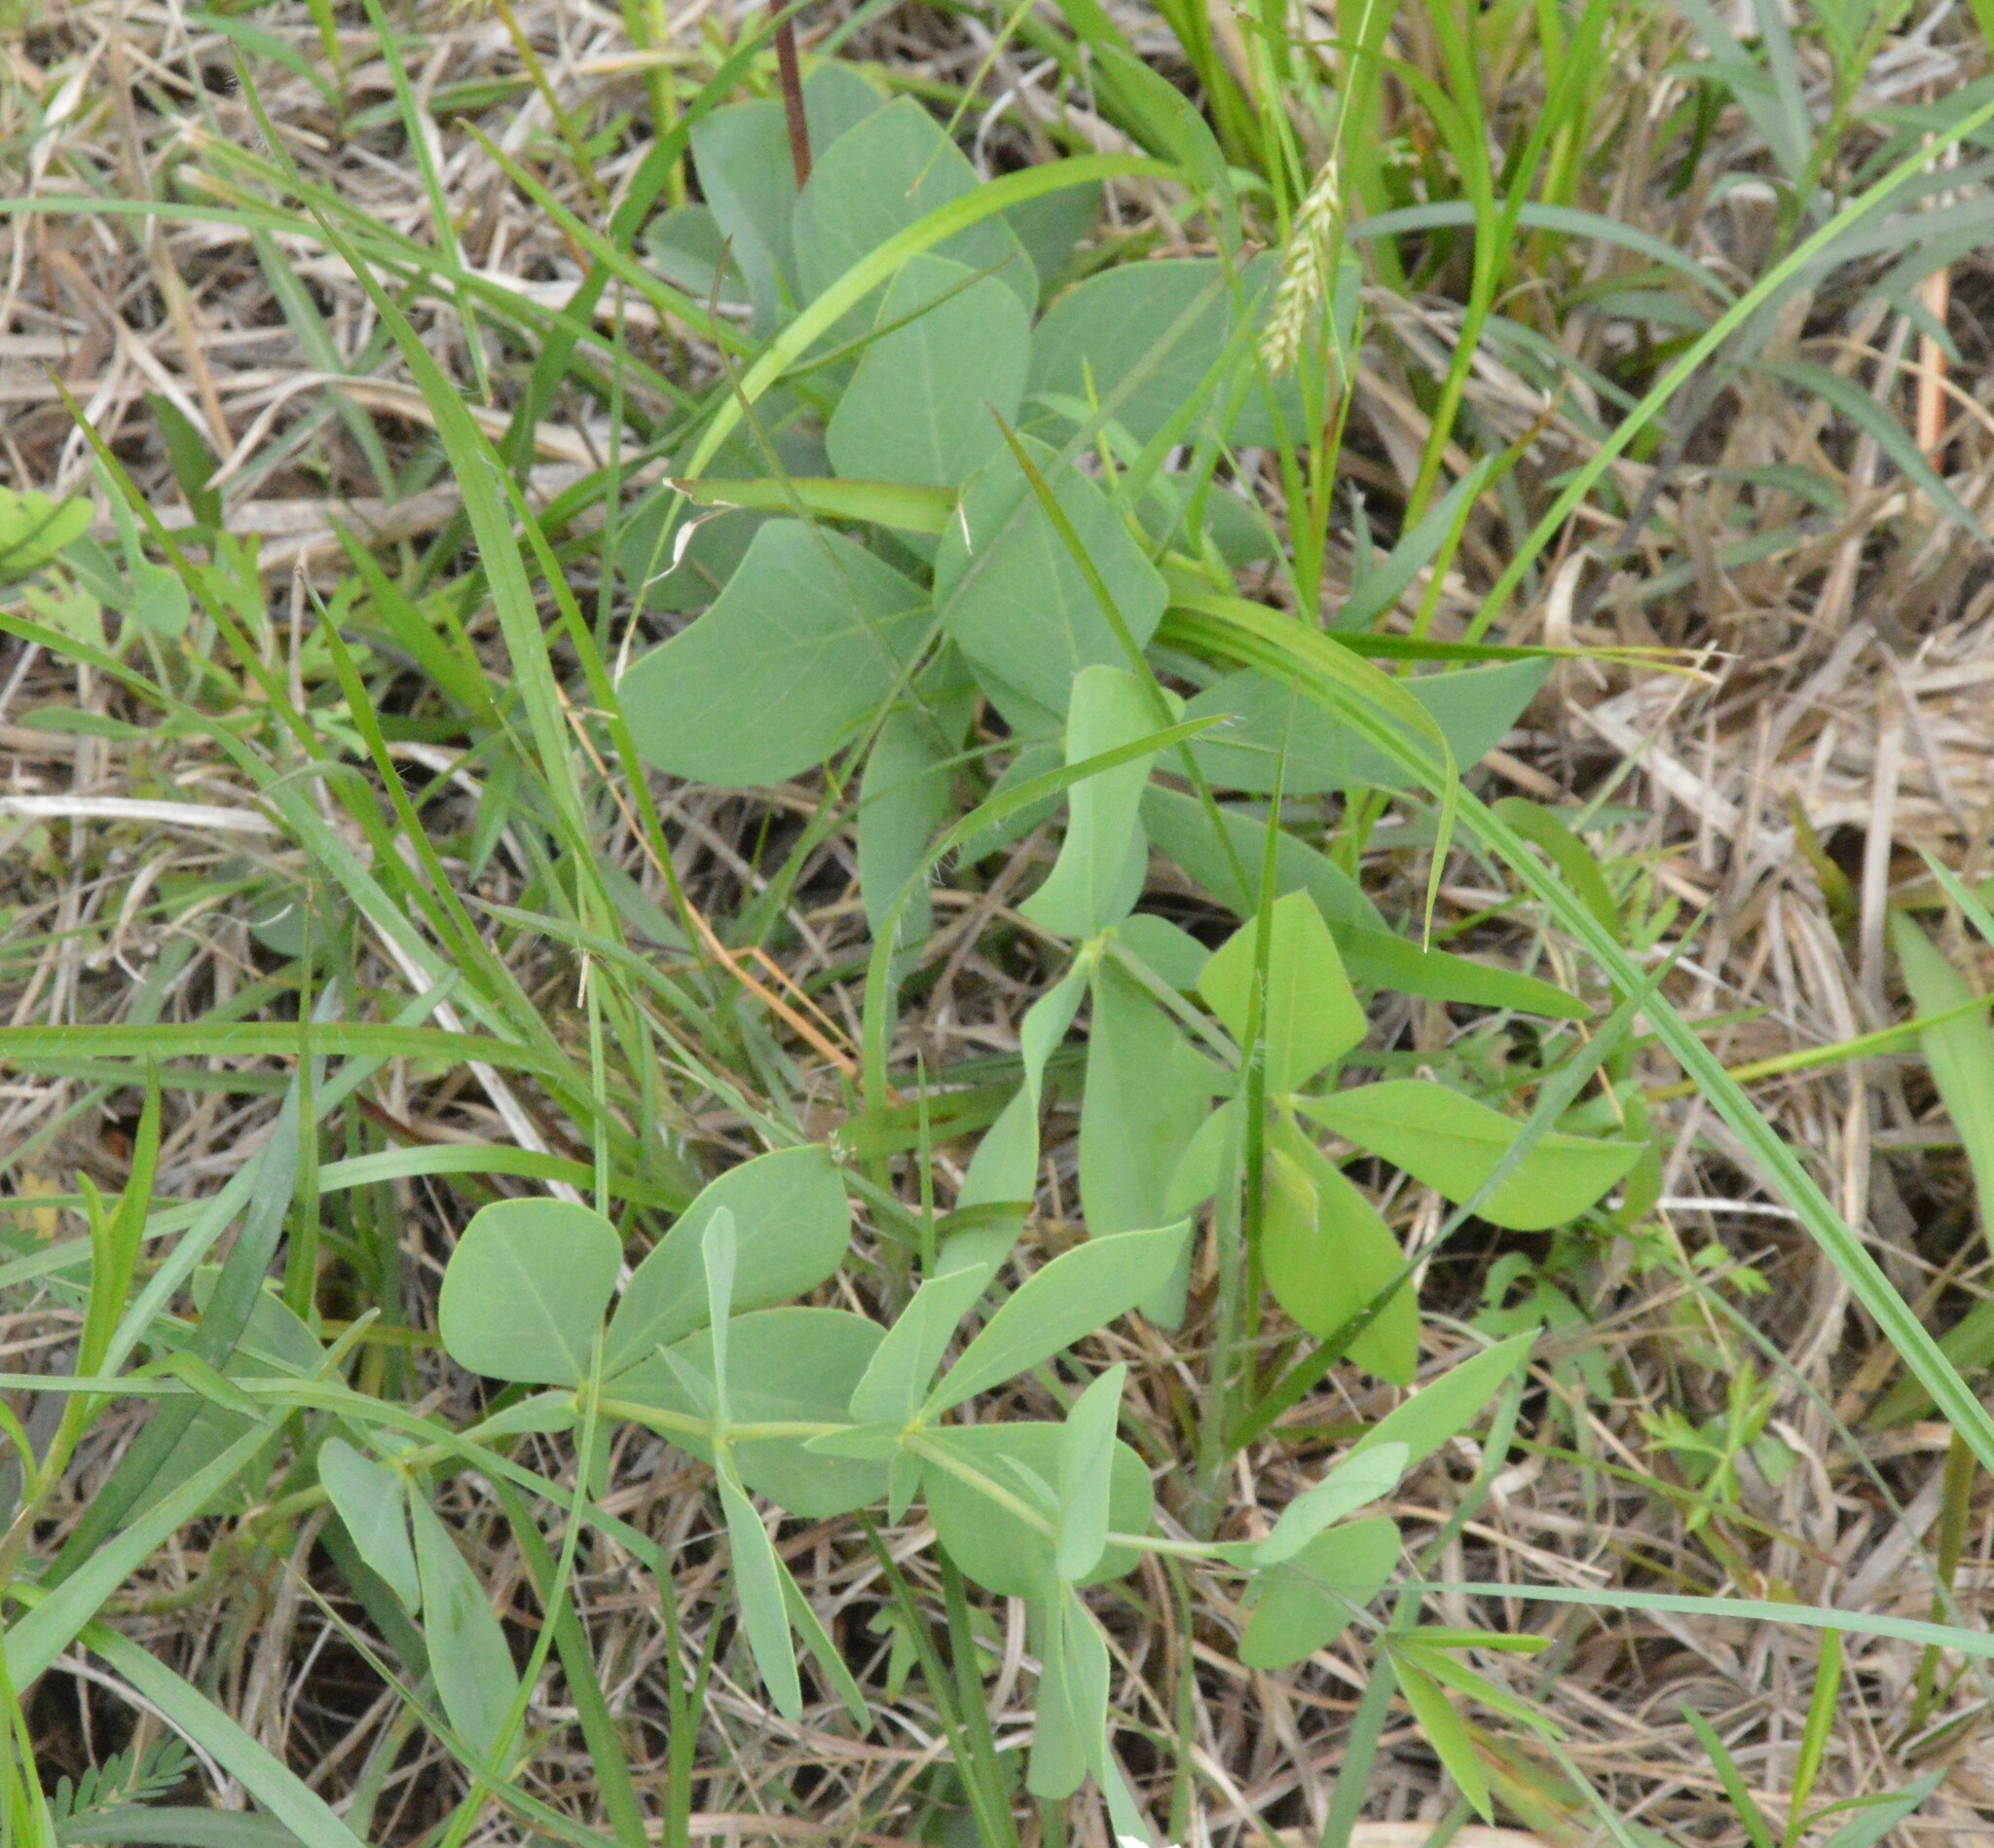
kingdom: Plantae
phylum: Tracheophyta
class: Magnoliopsida
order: Fabales
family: Fabaceae
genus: Baptisia
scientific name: Baptisia bracteata
